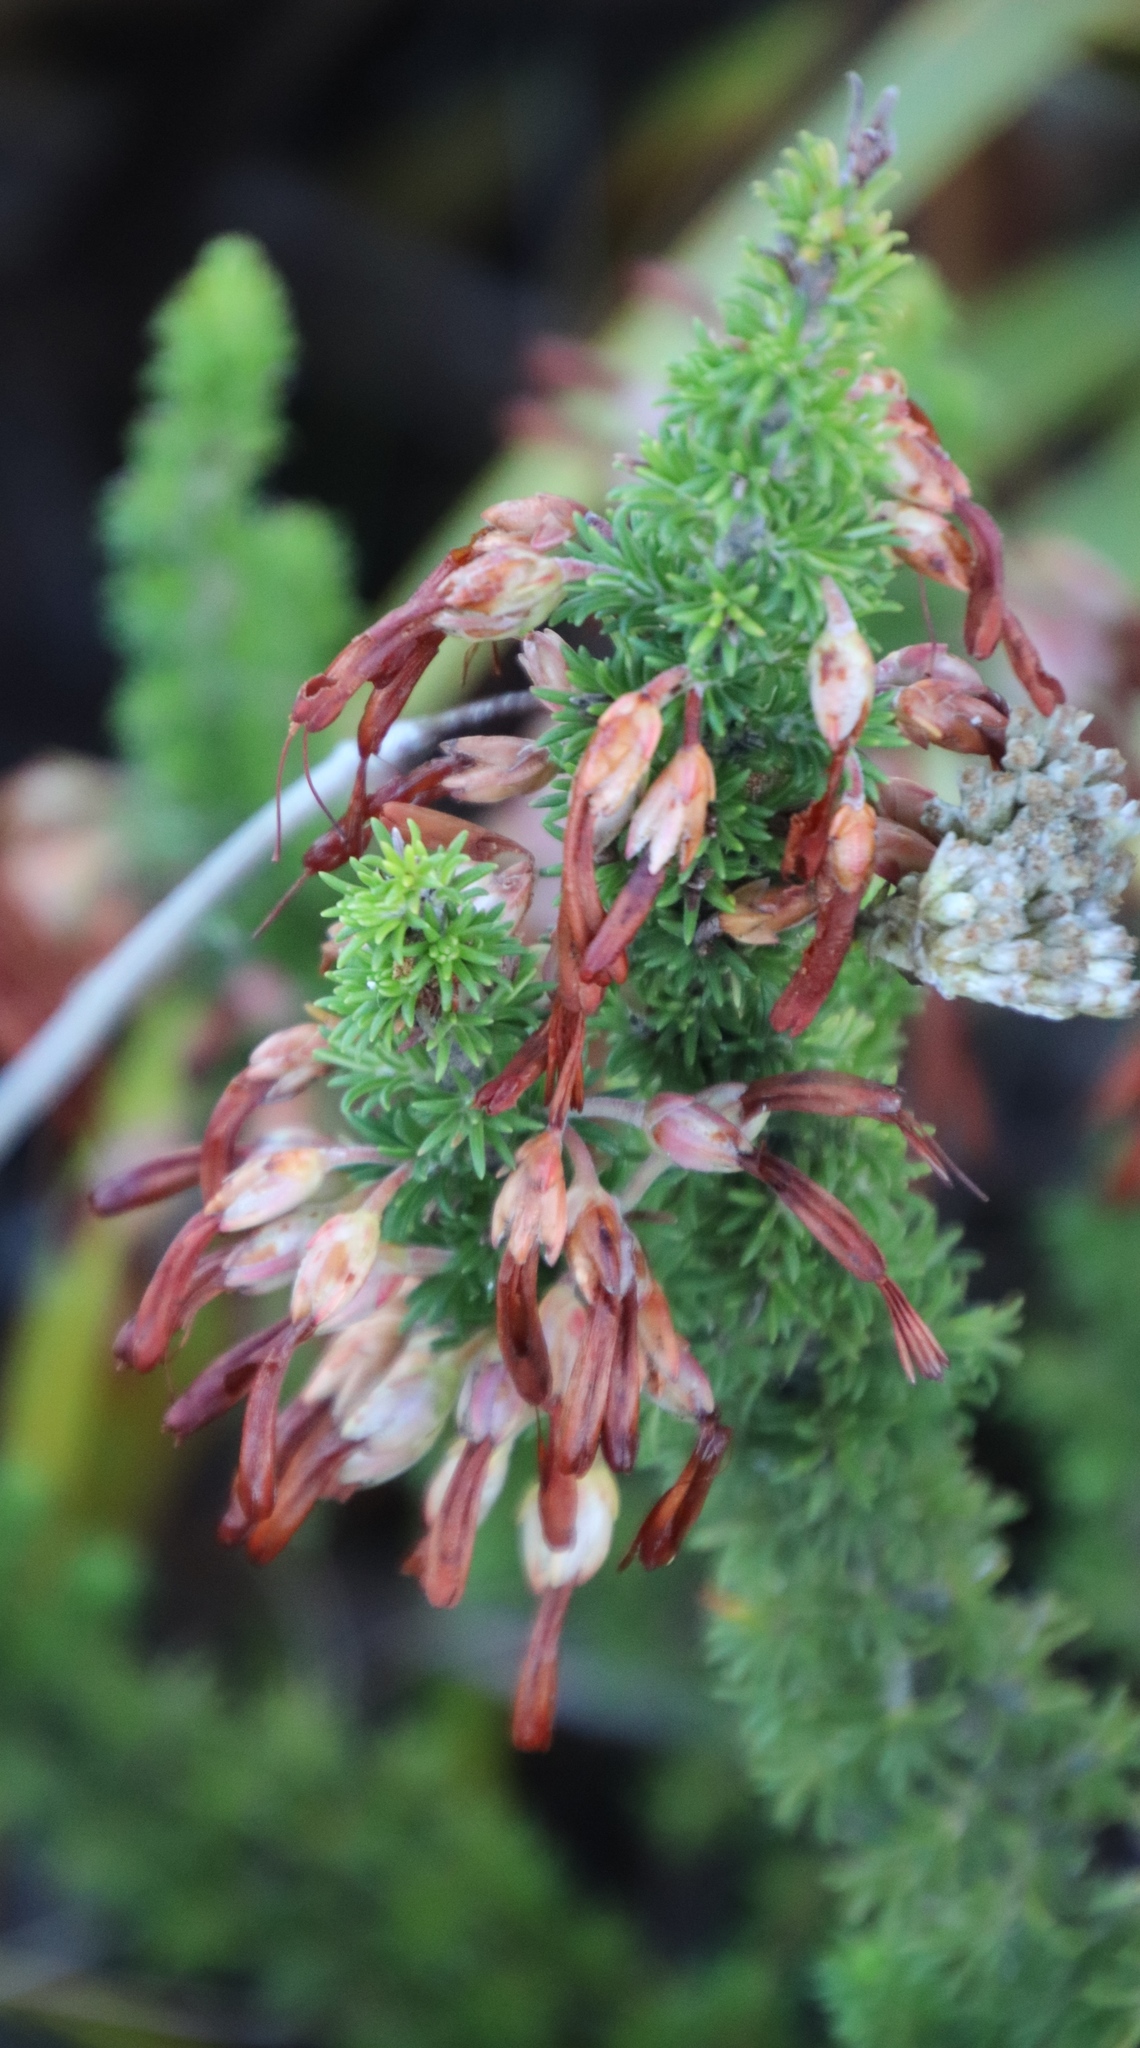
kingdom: Plantae
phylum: Tracheophyta
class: Magnoliopsida
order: Ericales
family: Ericaceae
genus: Erica
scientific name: Erica coccinea
